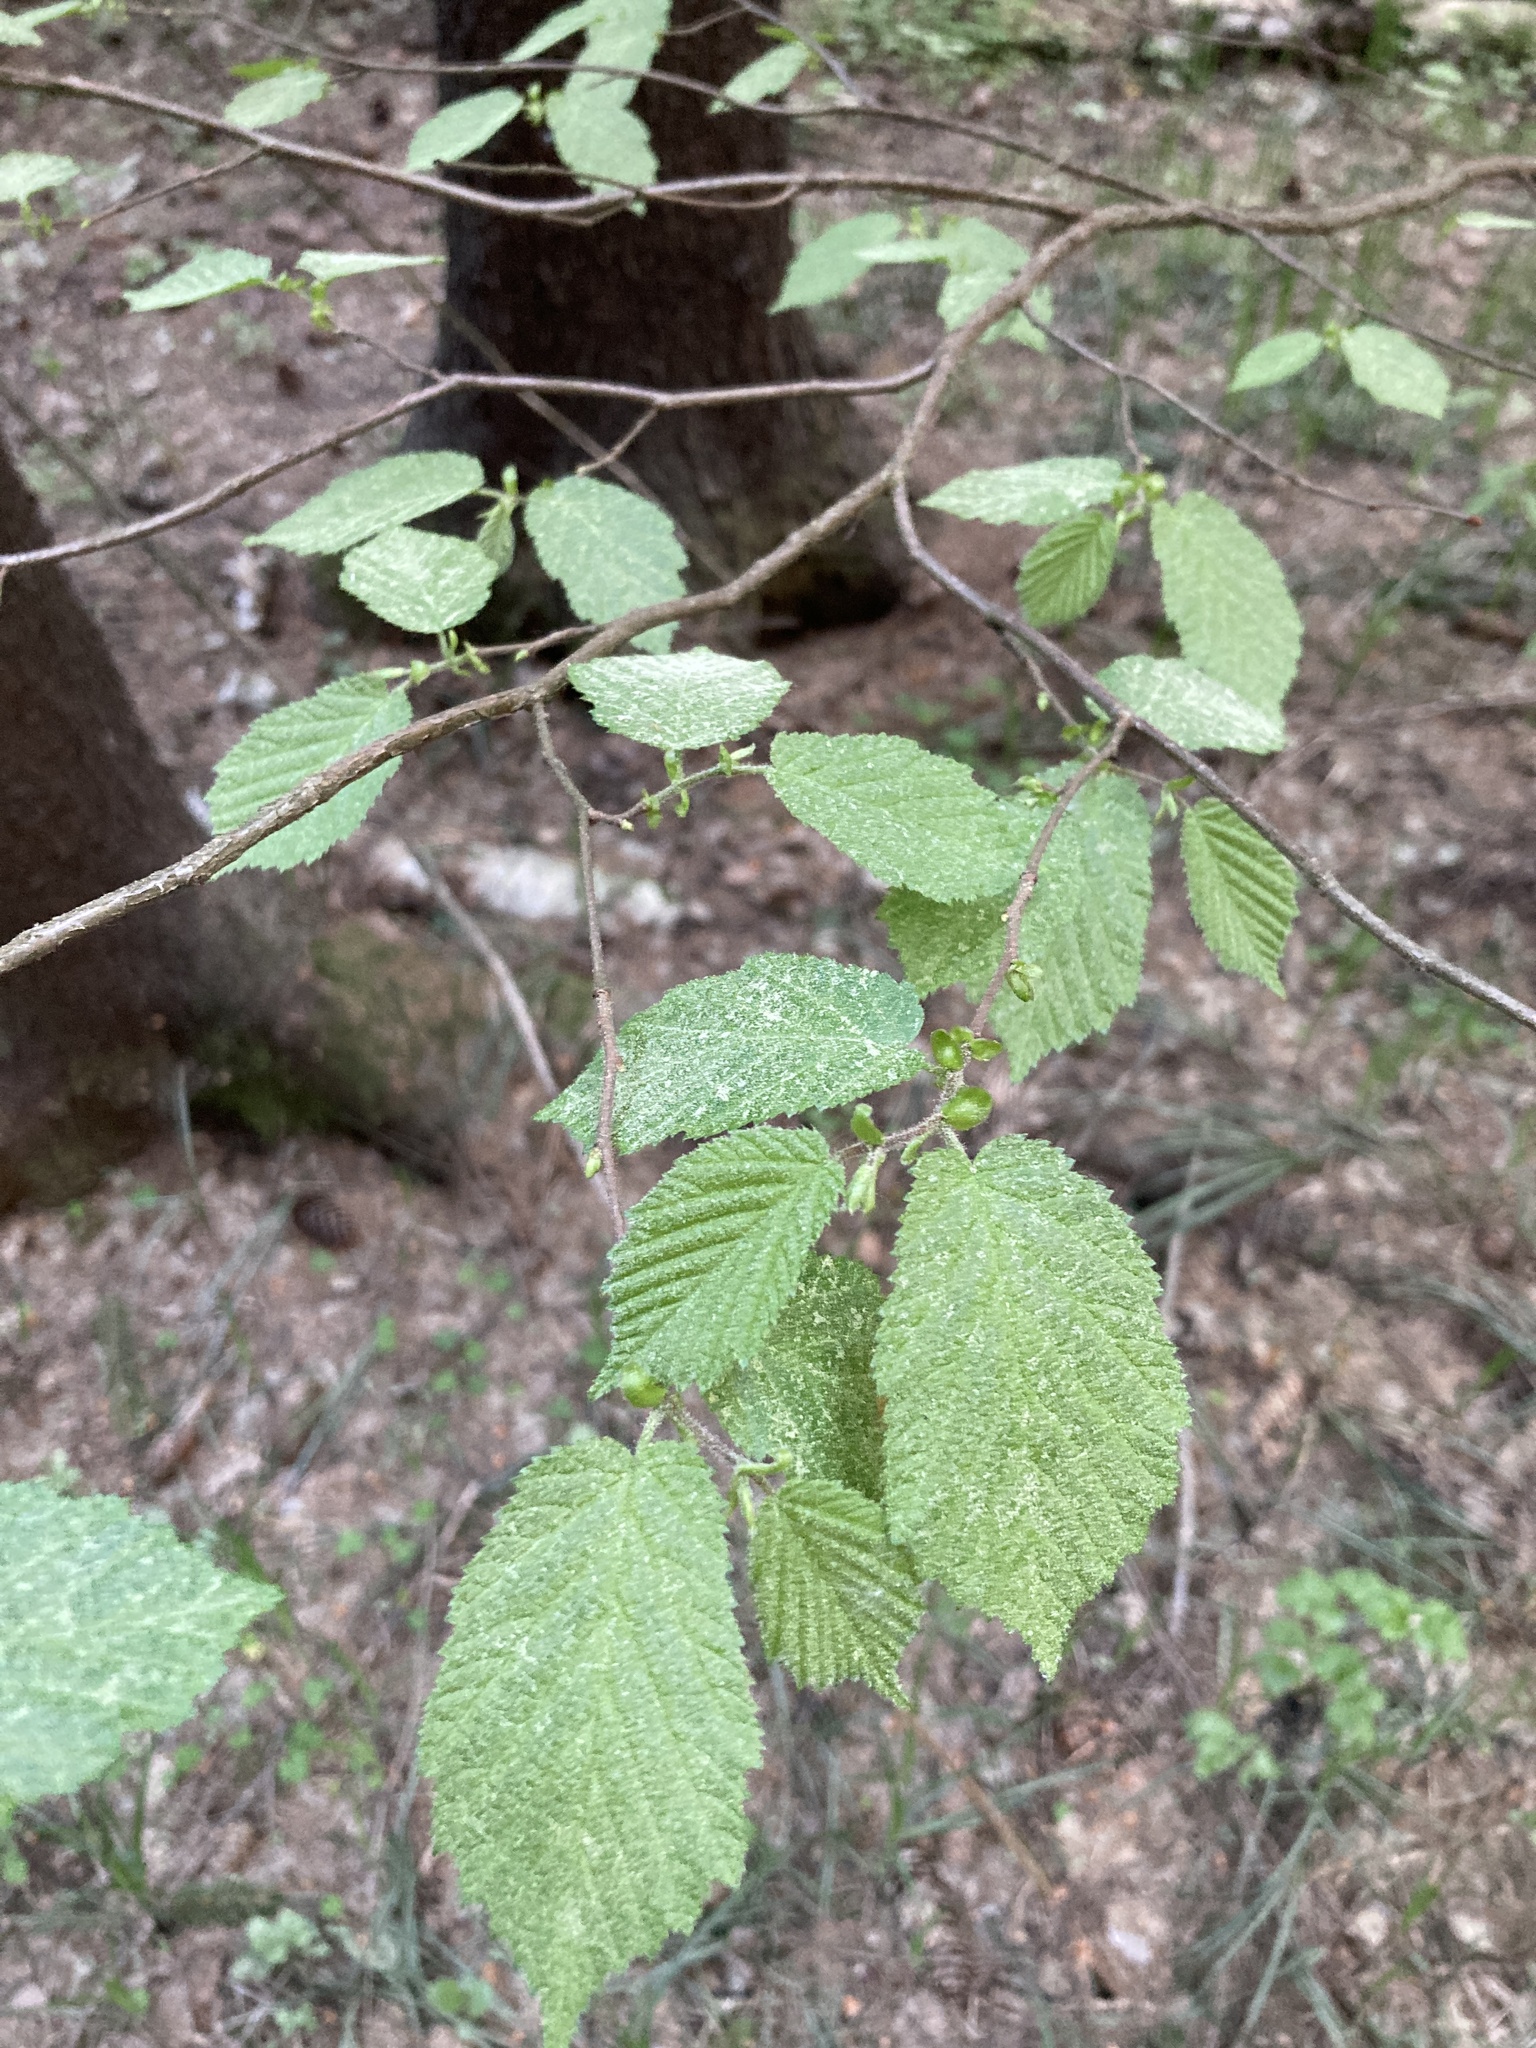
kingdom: Plantae
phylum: Tracheophyta
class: Magnoliopsida
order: Fagales
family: Betulaceae
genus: Corylus
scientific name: Corylus avellana
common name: European hazel
